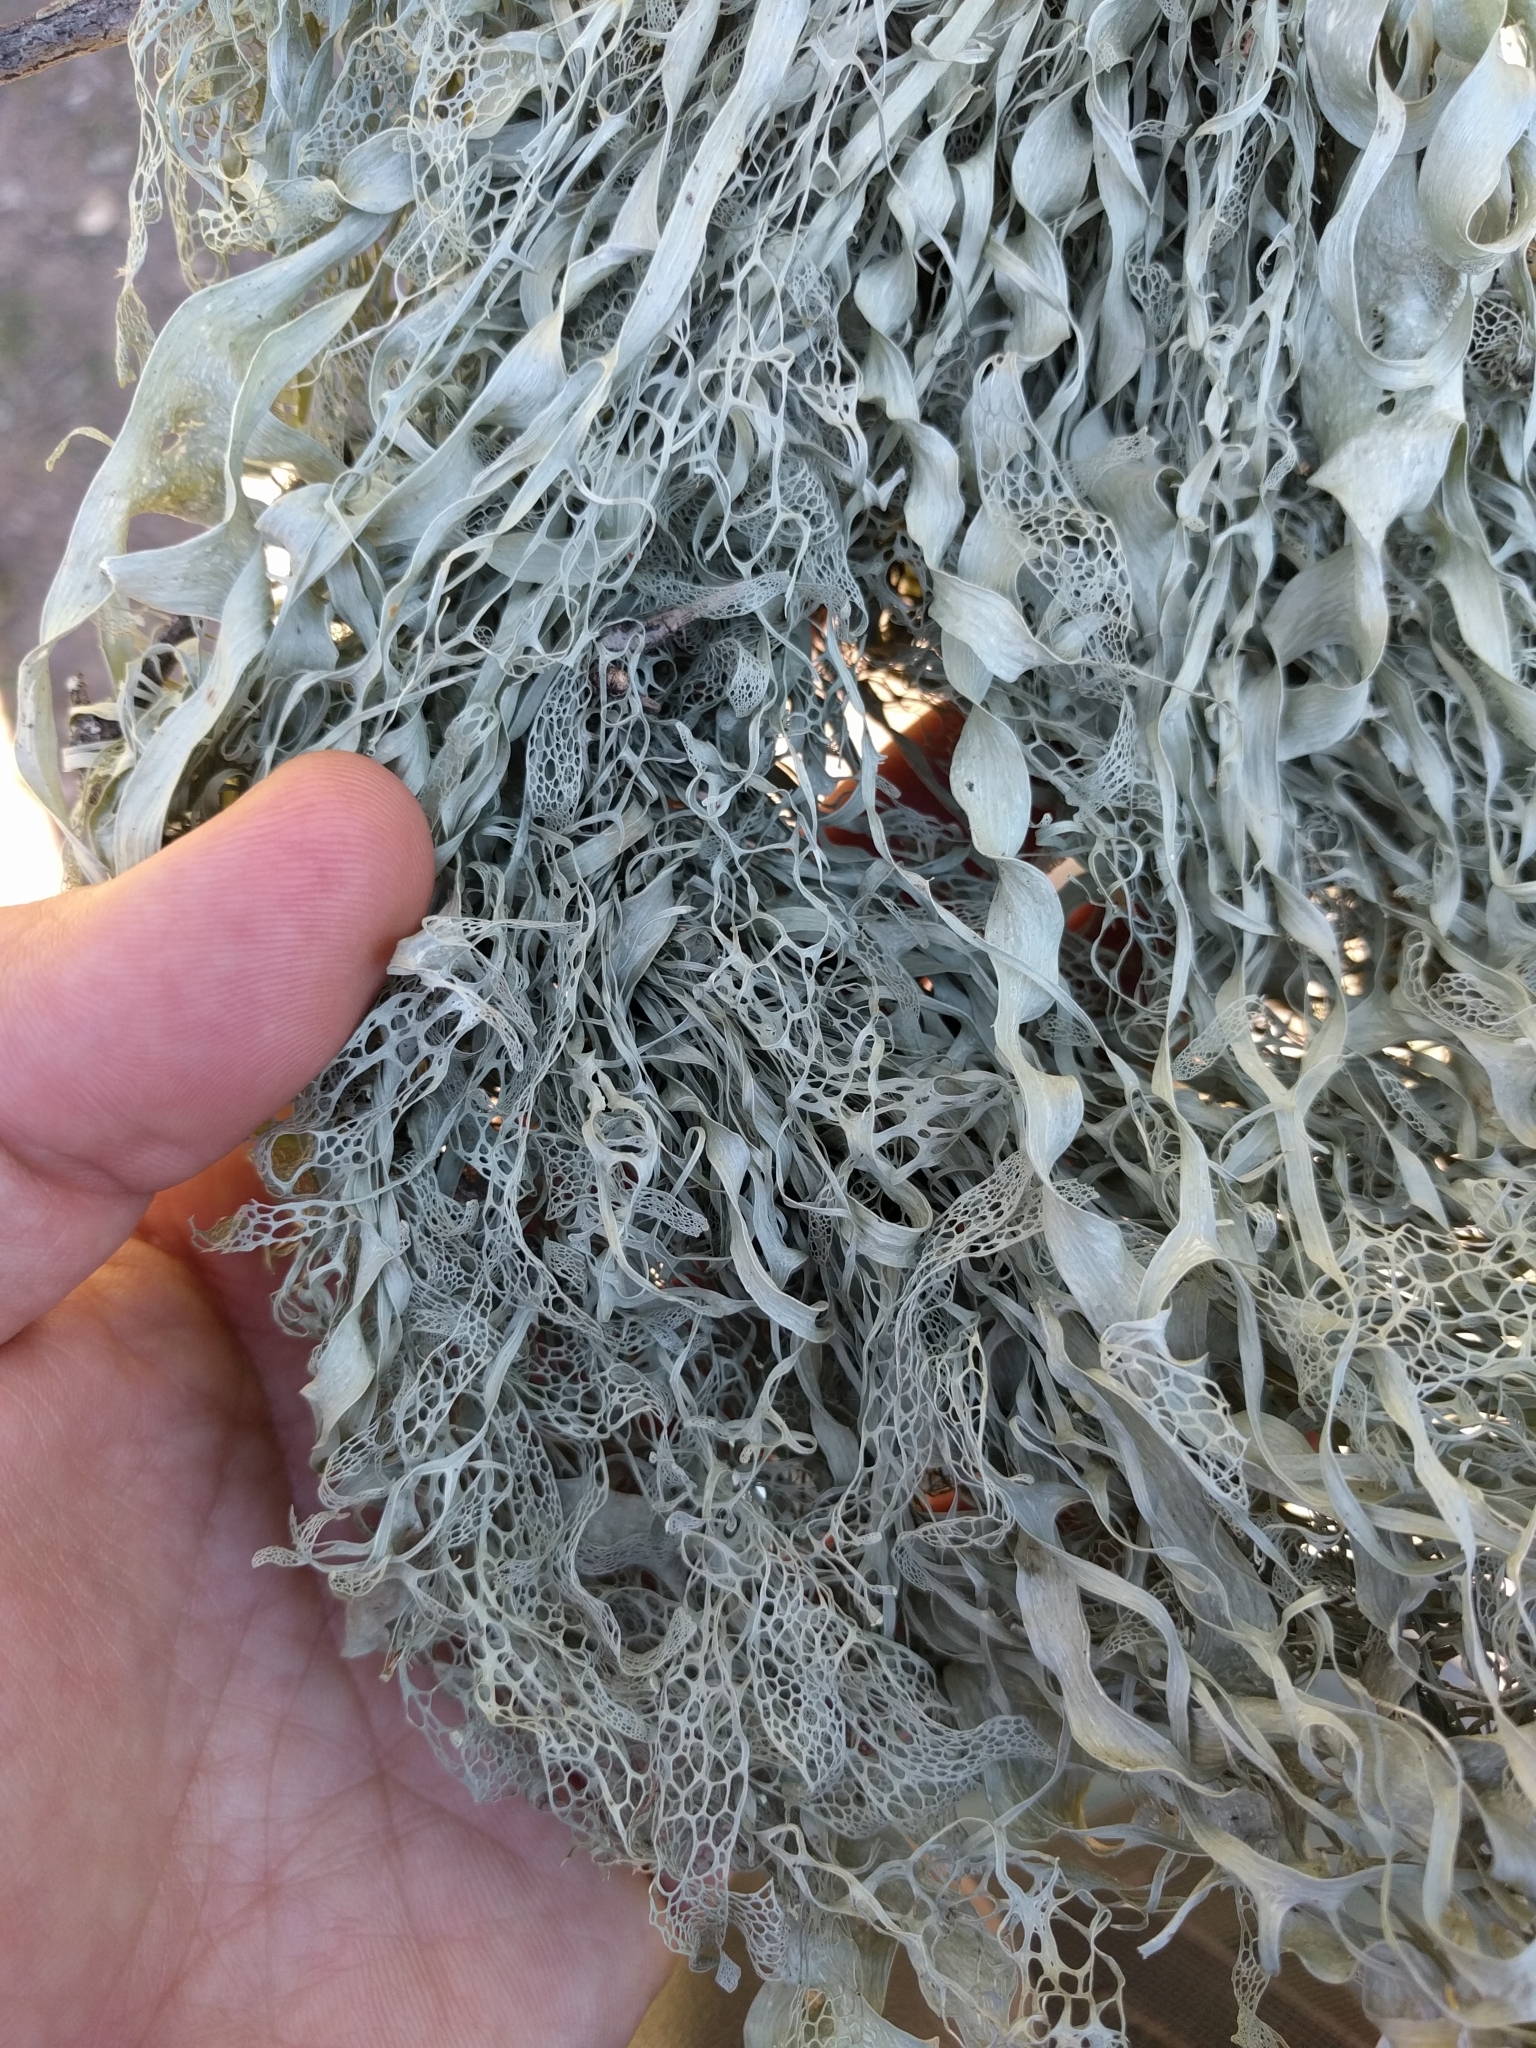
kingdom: Fungi
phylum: Ascomycota
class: Lecanoromycetes
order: Lecanorales
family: Ramalinaceae
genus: Ramalina
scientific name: Ramalina menziesii
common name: Lace lichen
